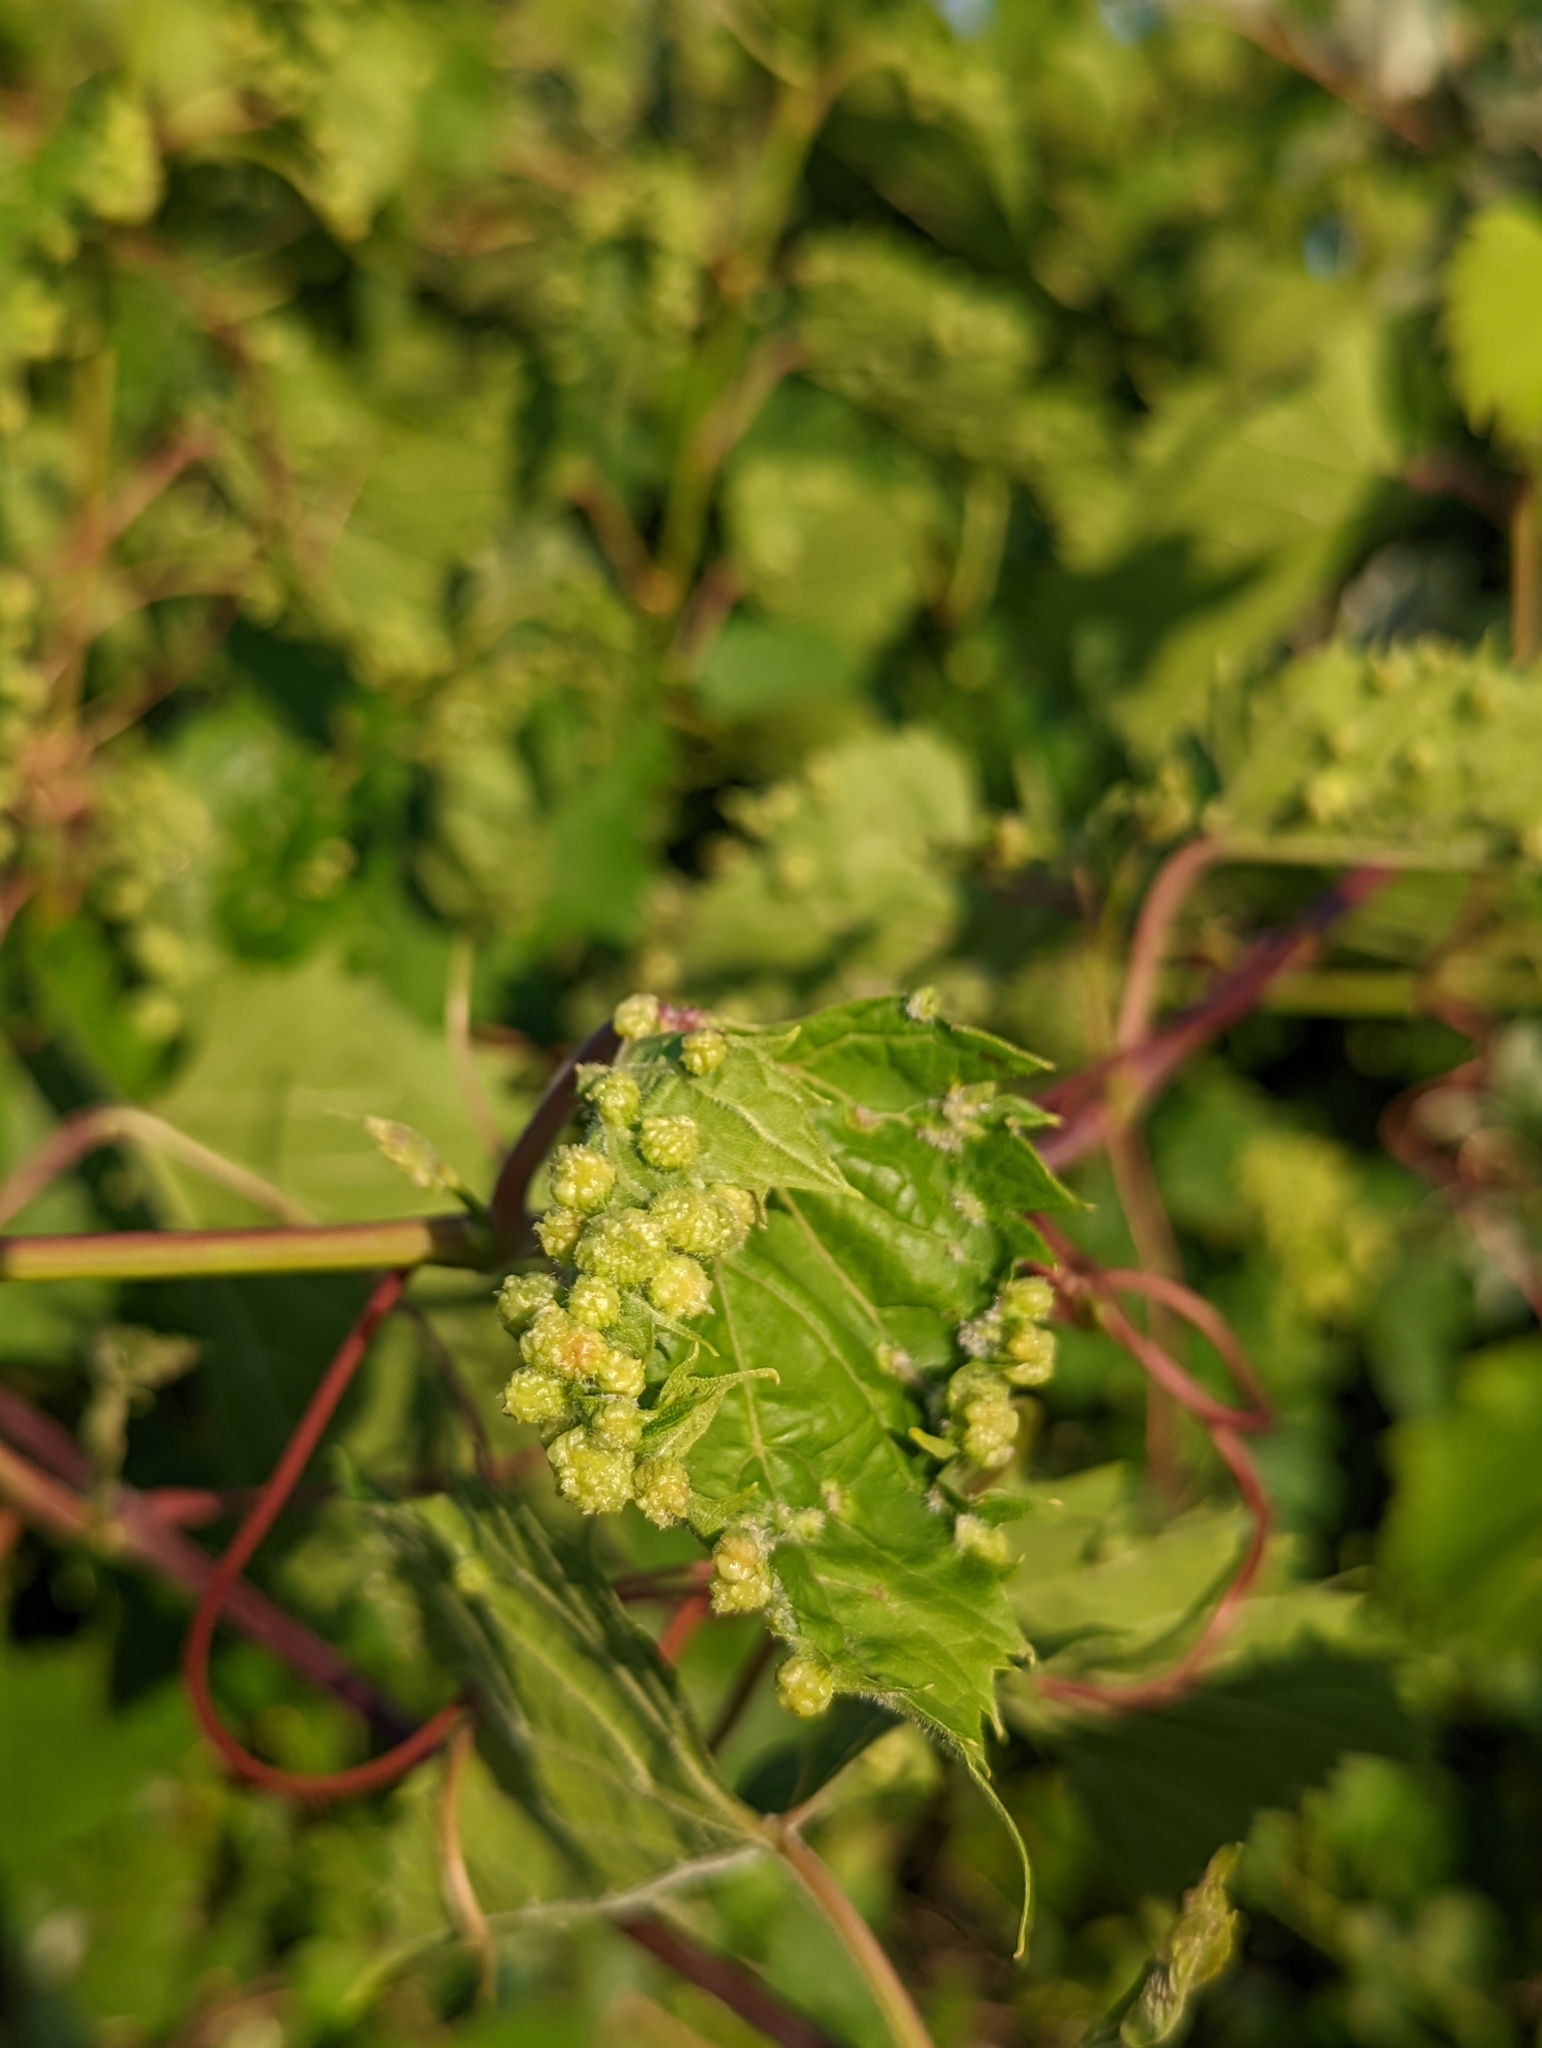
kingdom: Animalia
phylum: Arthropoda
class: Insecta
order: Hemiptera
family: Phylloxeridae
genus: Daktulosphaira
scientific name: Daktulosphaira vitifoliae
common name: Grape phylloxera
